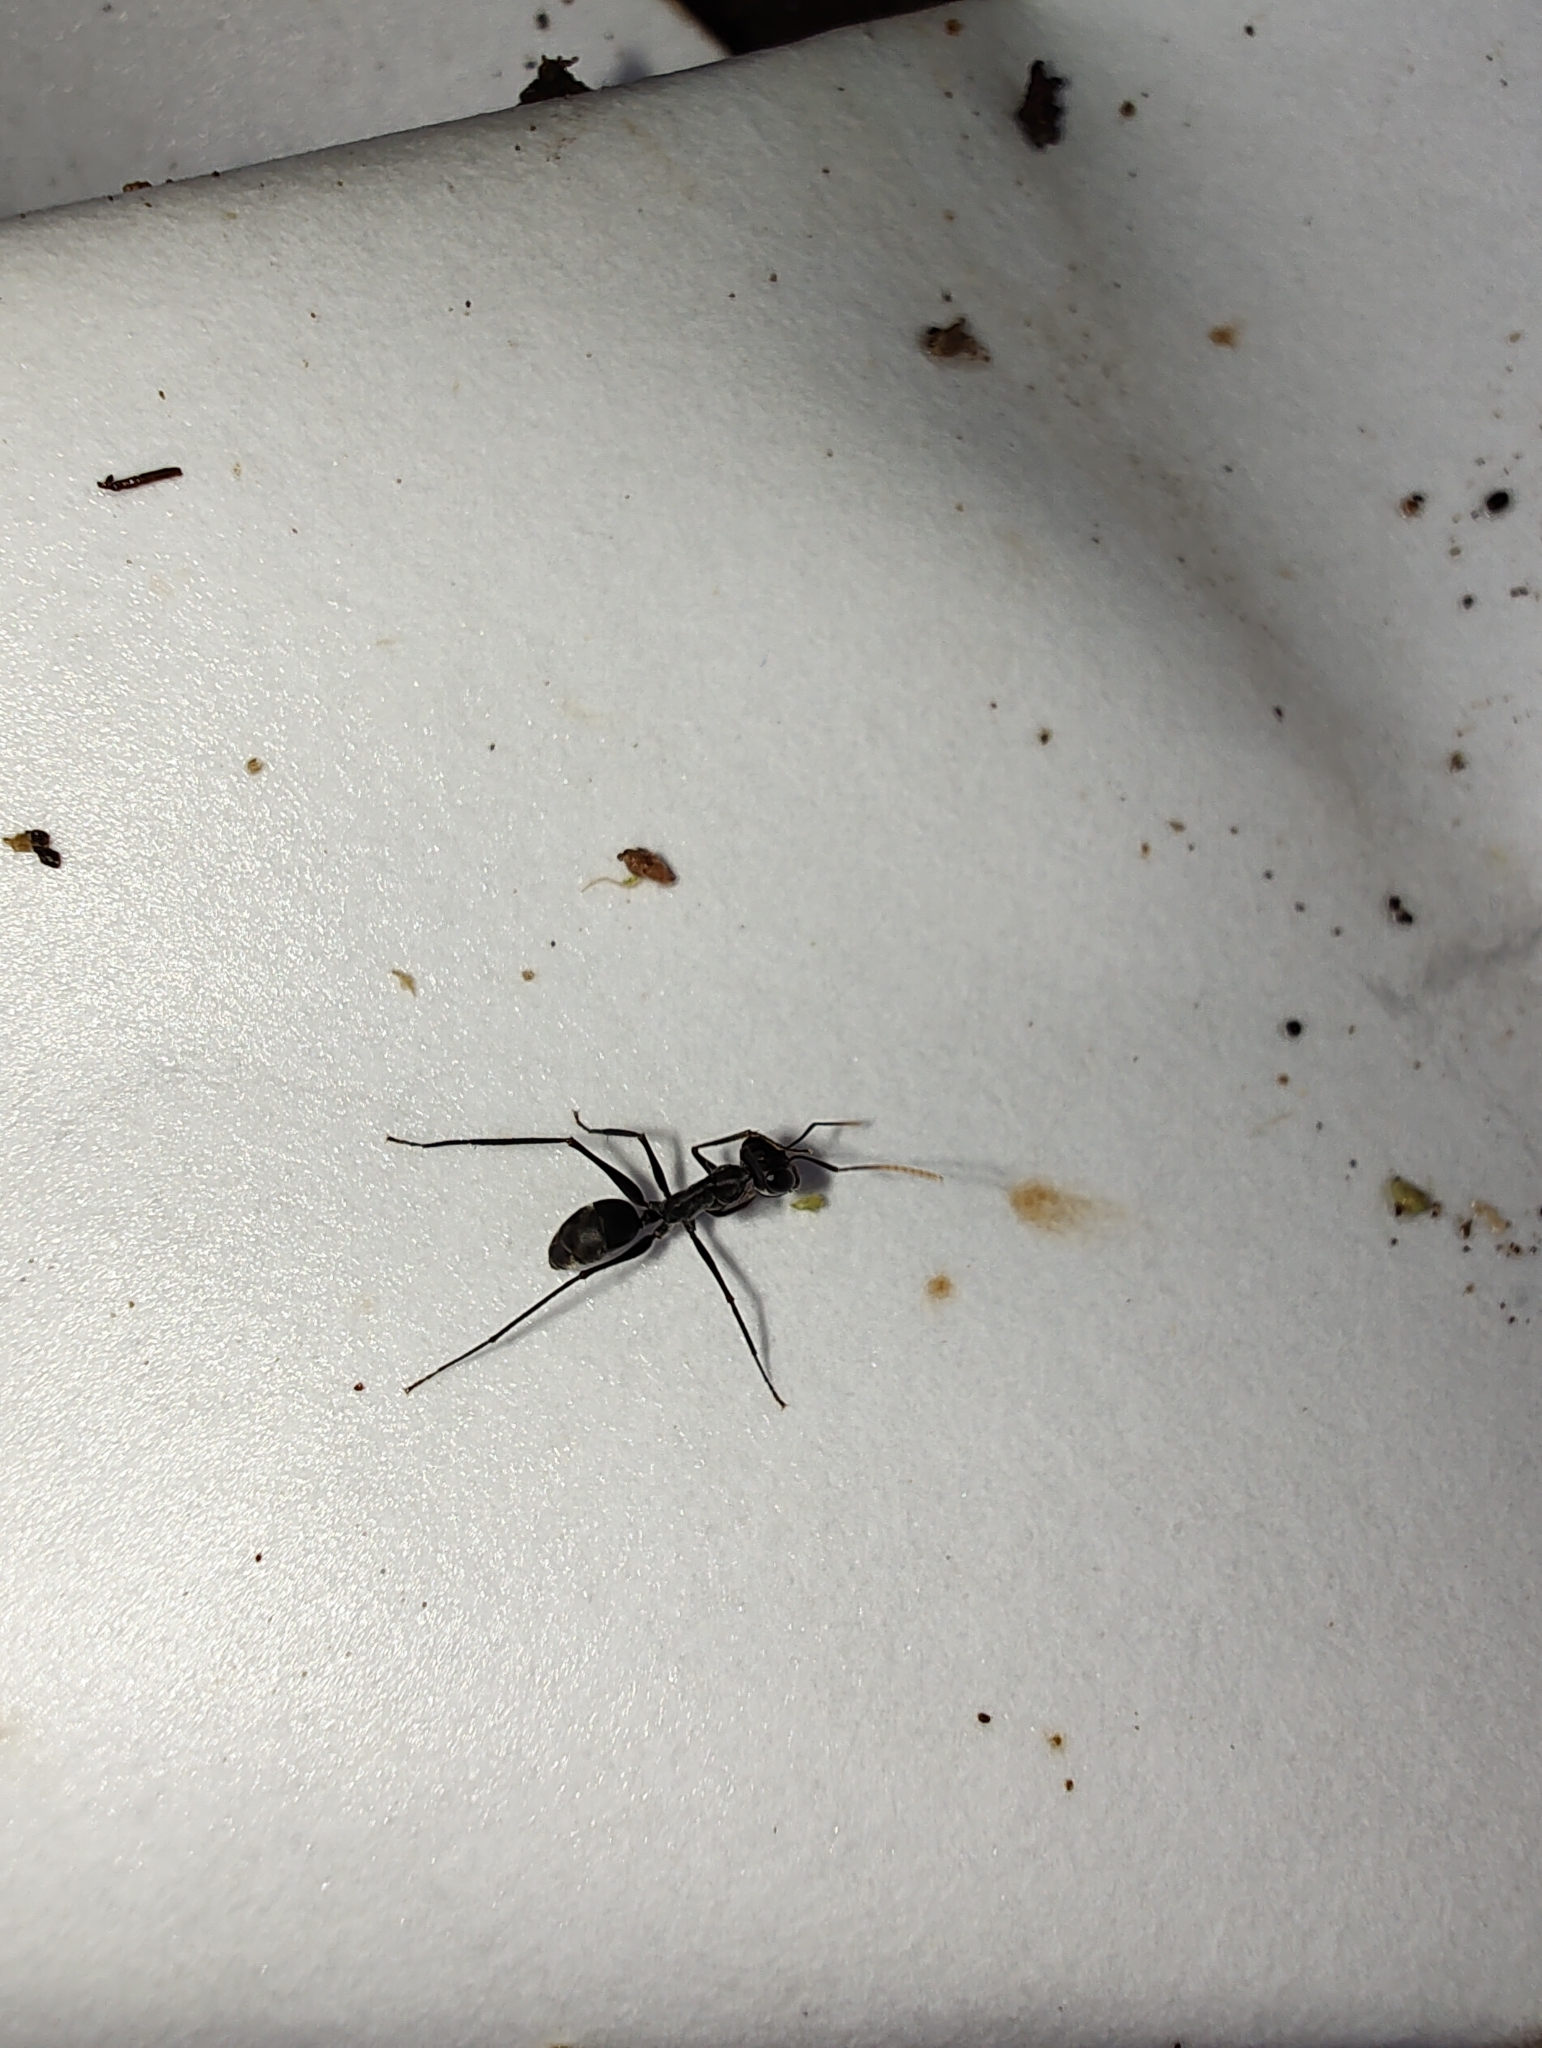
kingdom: Animalia
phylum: Arthropoda
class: Insecta
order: Hymenoptera
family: Formicidae
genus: Gigantiops
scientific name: Gigantiops destructor
